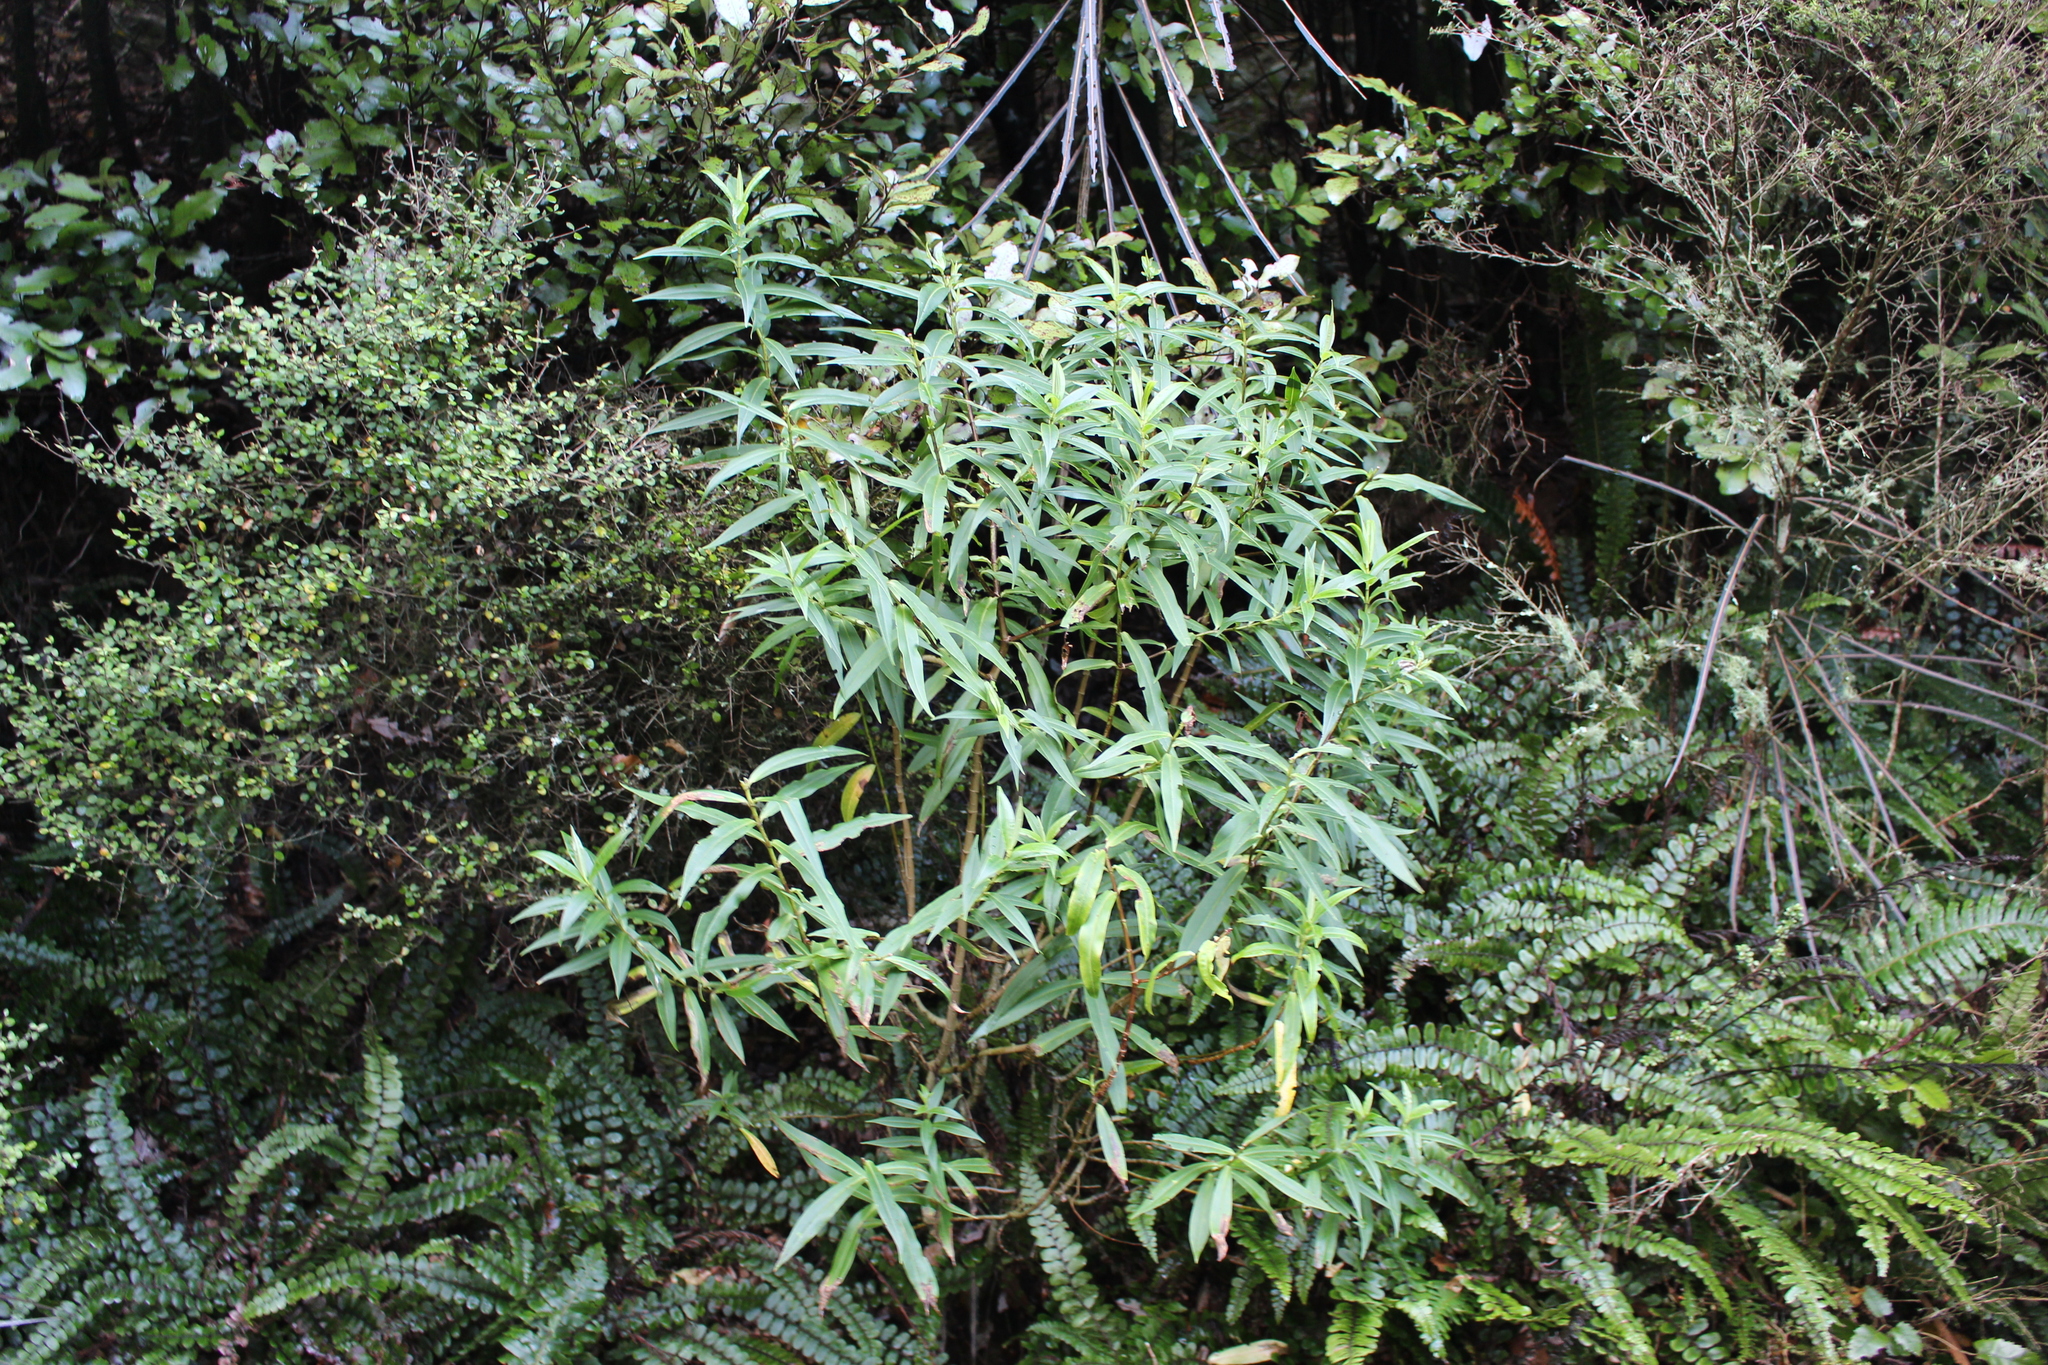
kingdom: Plantae
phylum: Tracheophyta
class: Magnoliopsida
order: Lamiales
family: Plantaginaceae
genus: Veronica
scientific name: Veronica salicifolia
